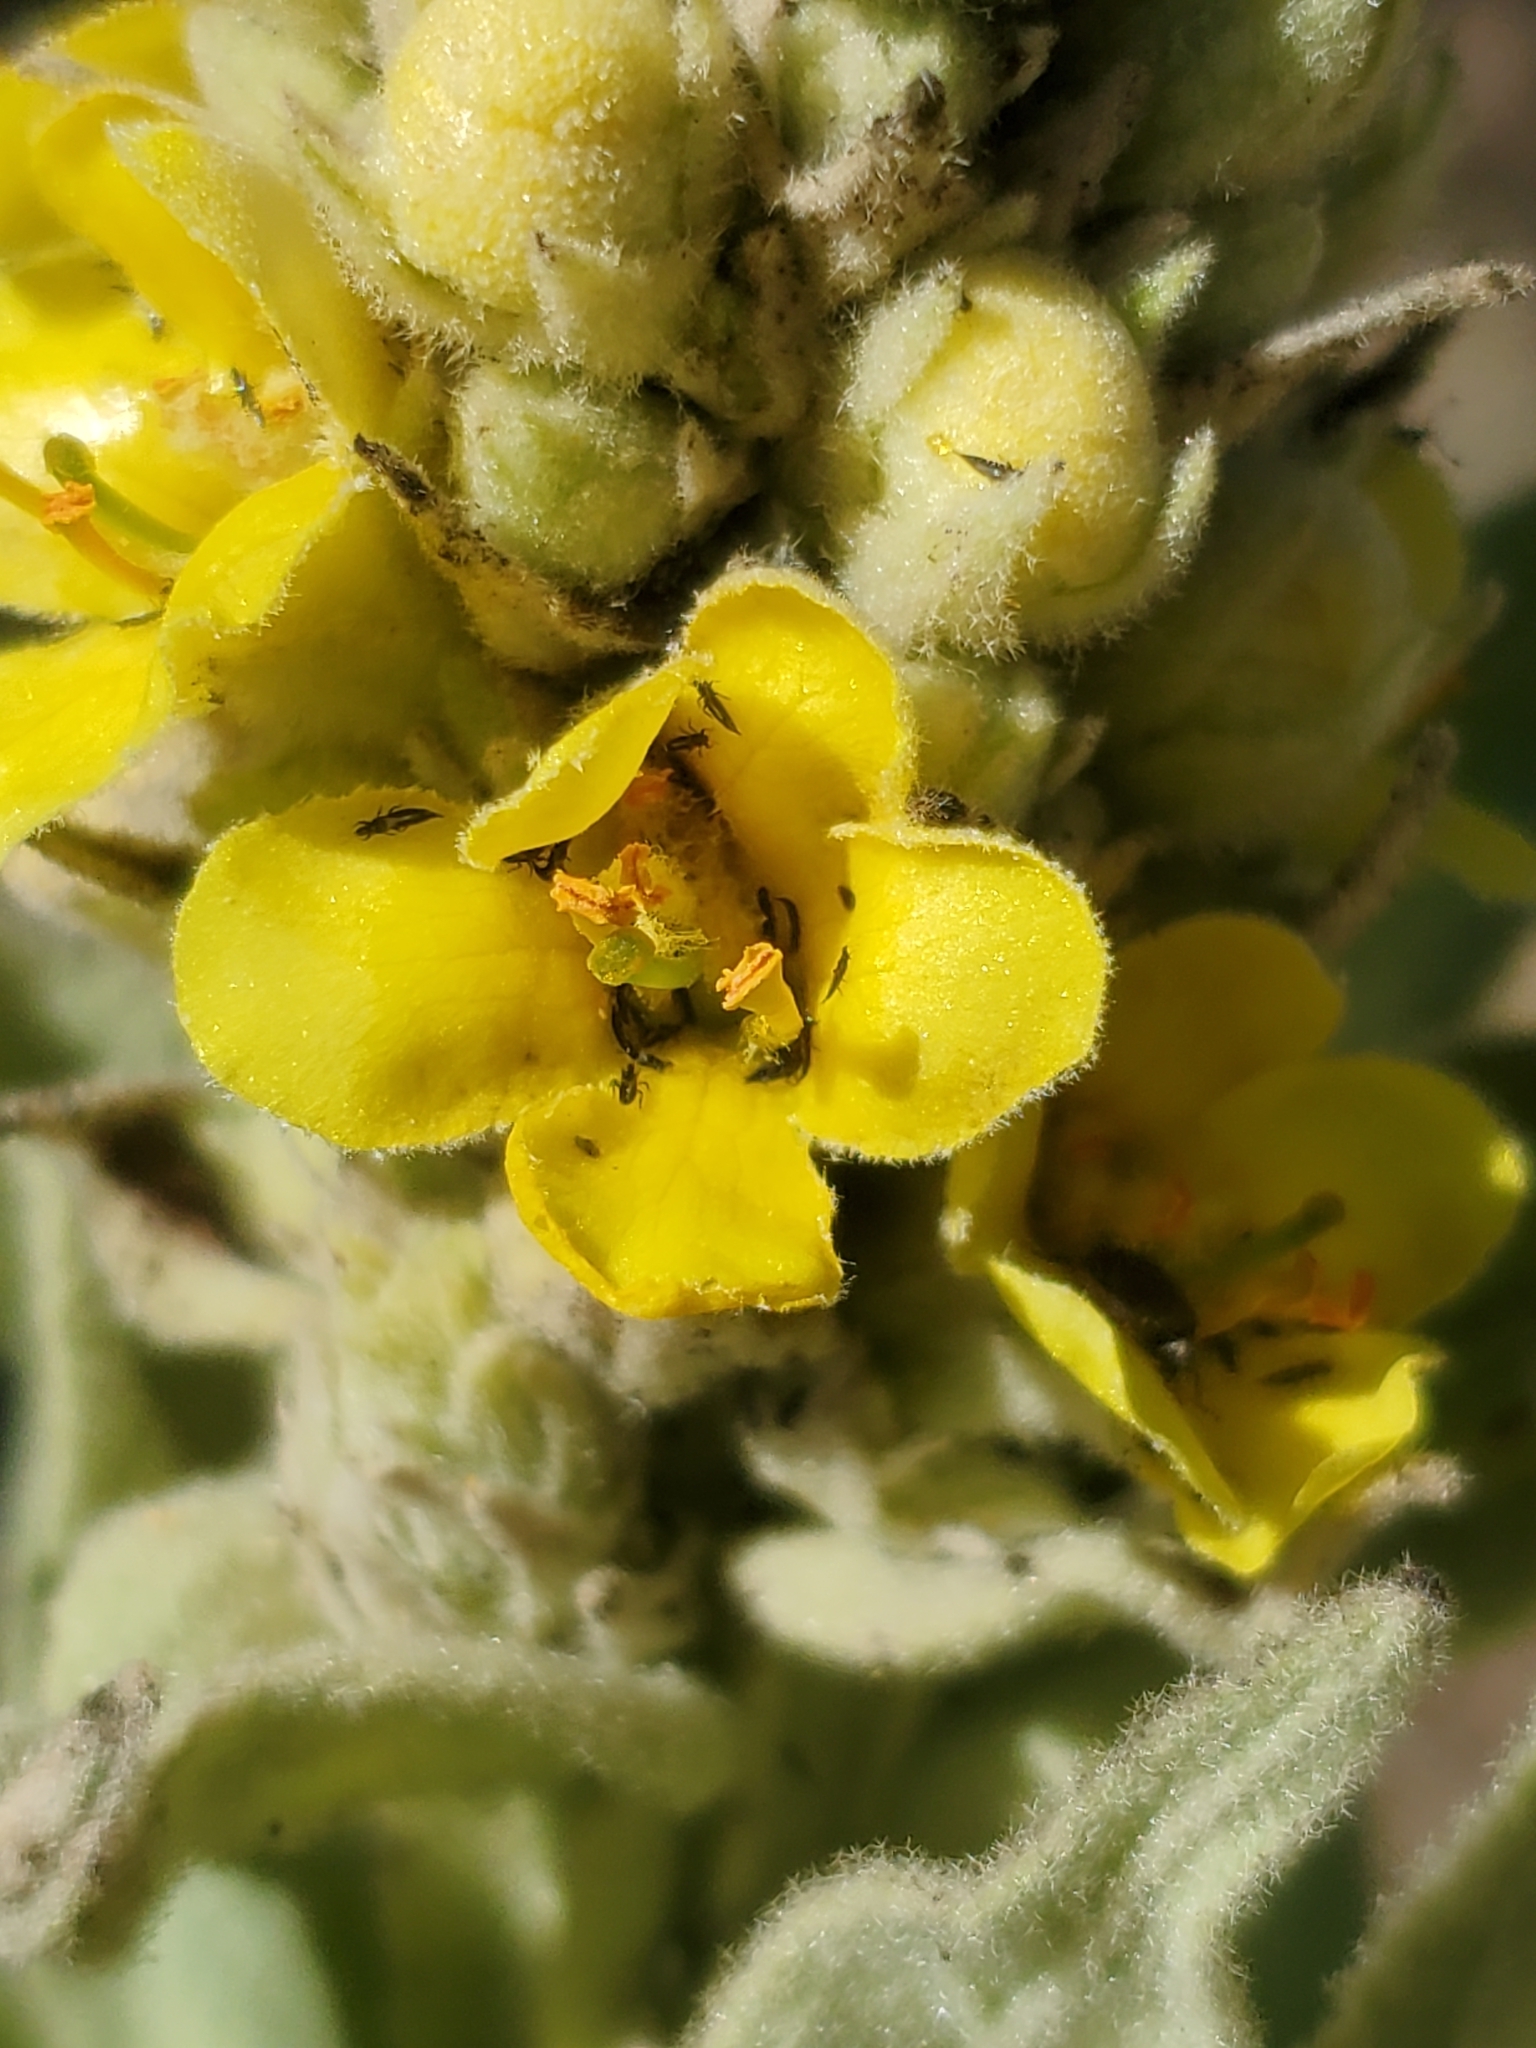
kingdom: Plantae
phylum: Tracheophyta
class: Magnoliopsida
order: Lamiales
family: Scrophulariaceae
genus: Verbascum
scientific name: Verbascum thapsus
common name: Common mullein
